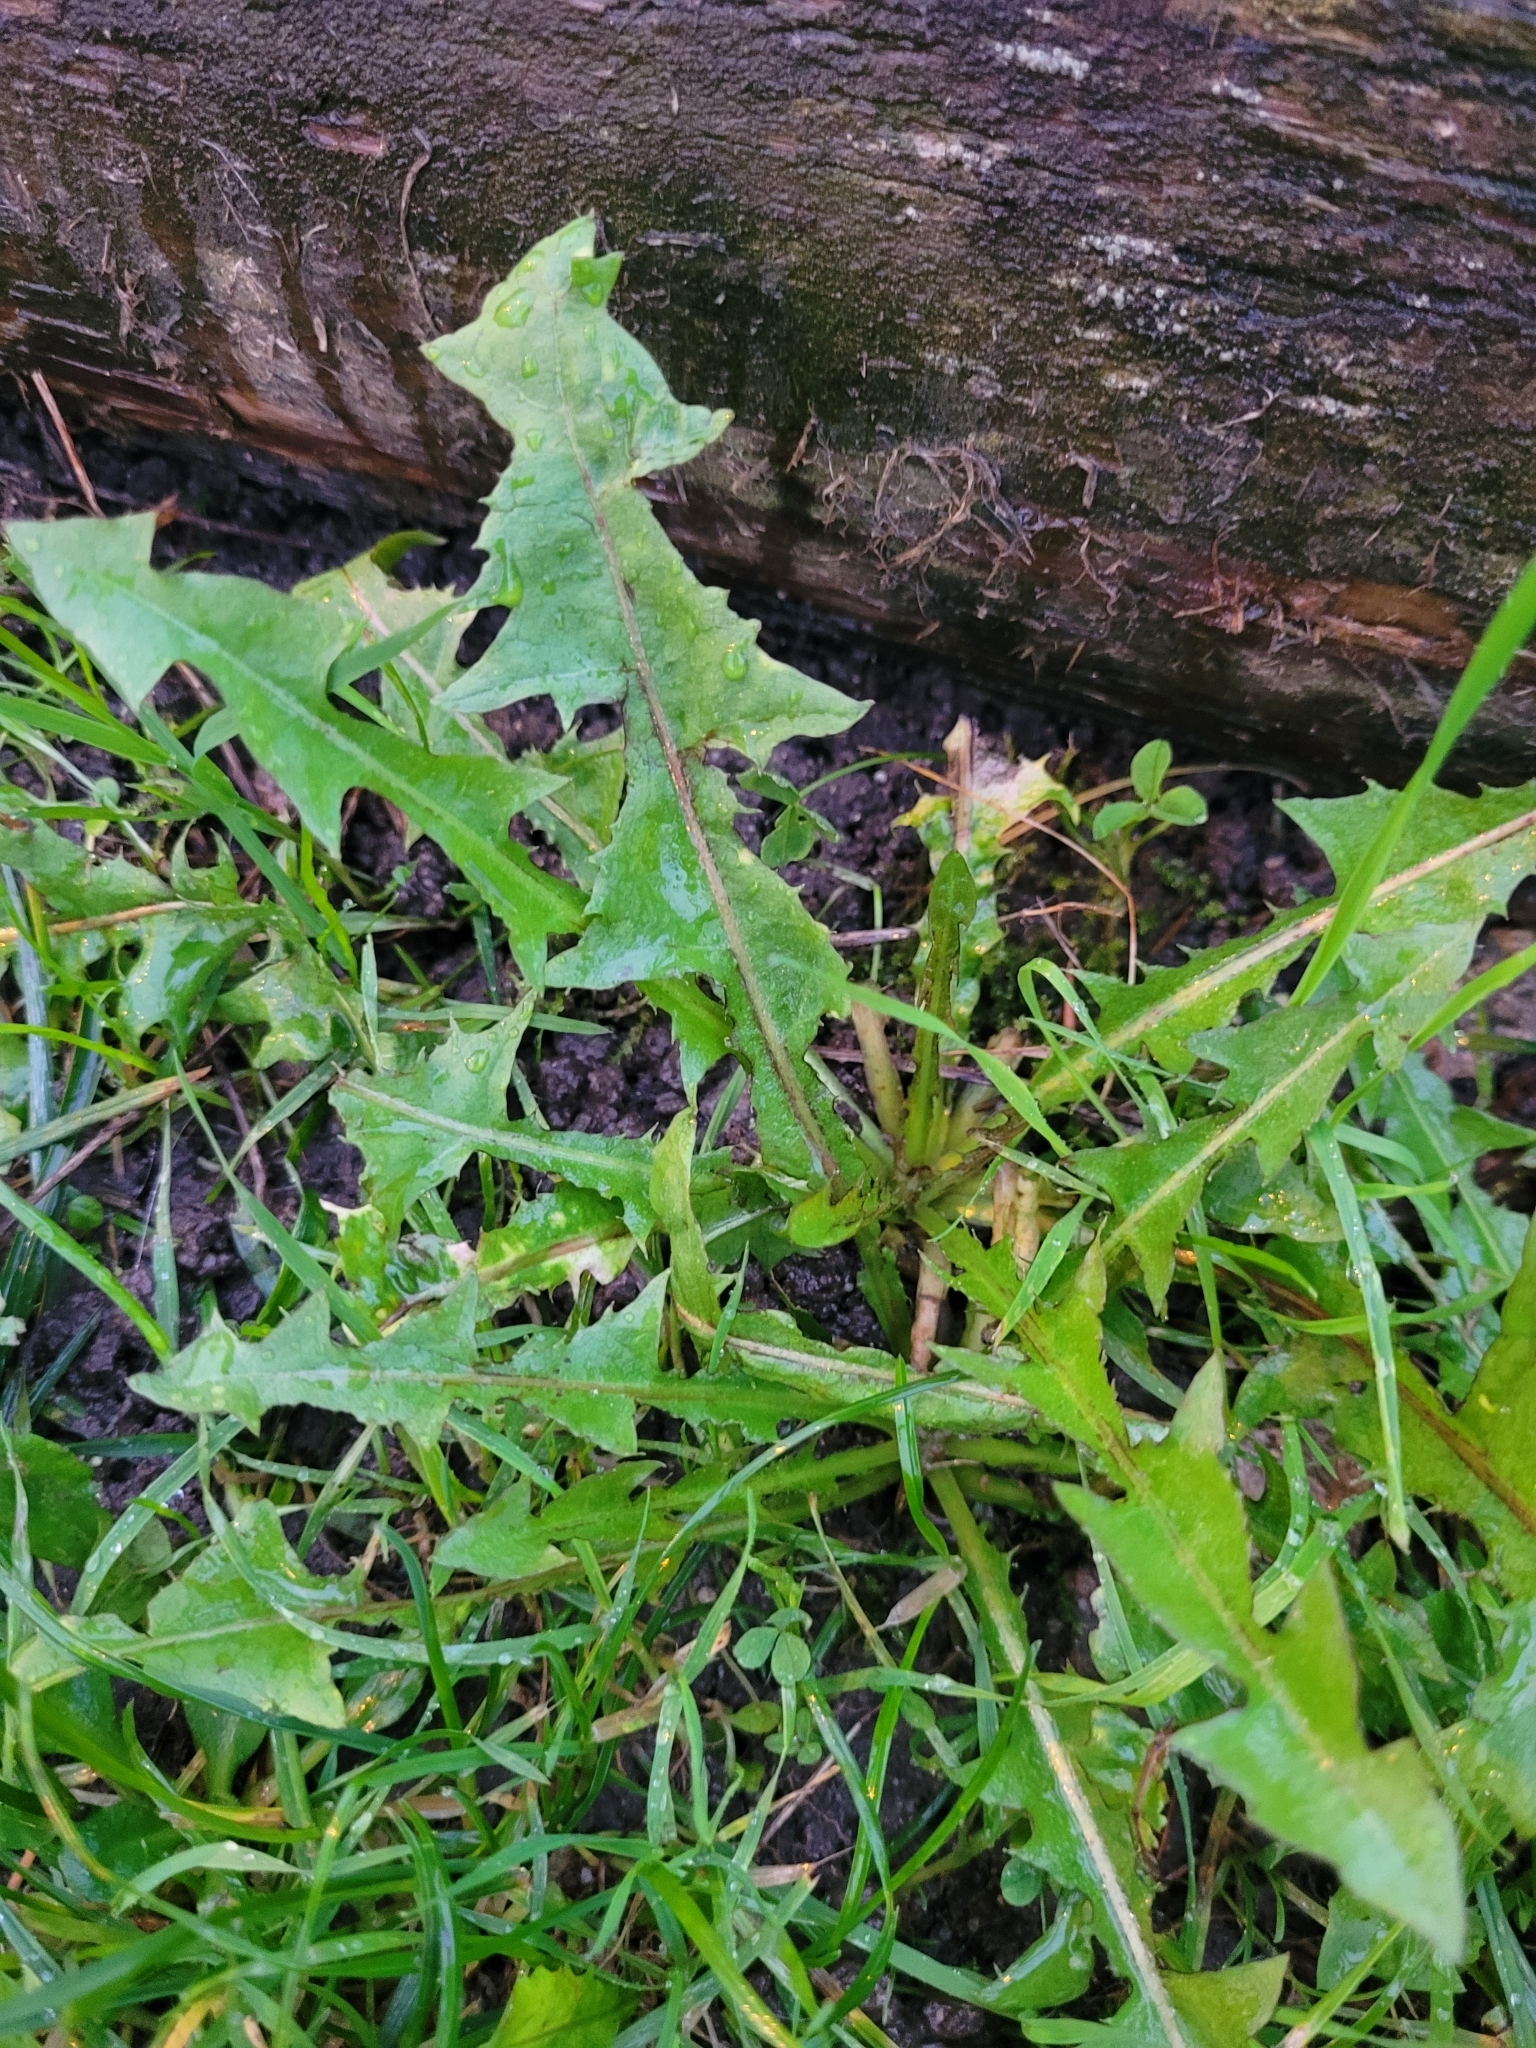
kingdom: Plantae
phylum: Tracheophyta
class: Magnoliopsida
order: Asterales
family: Asteraceae
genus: Taraxacum
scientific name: Taraxacum officinale
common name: Common dandelion
